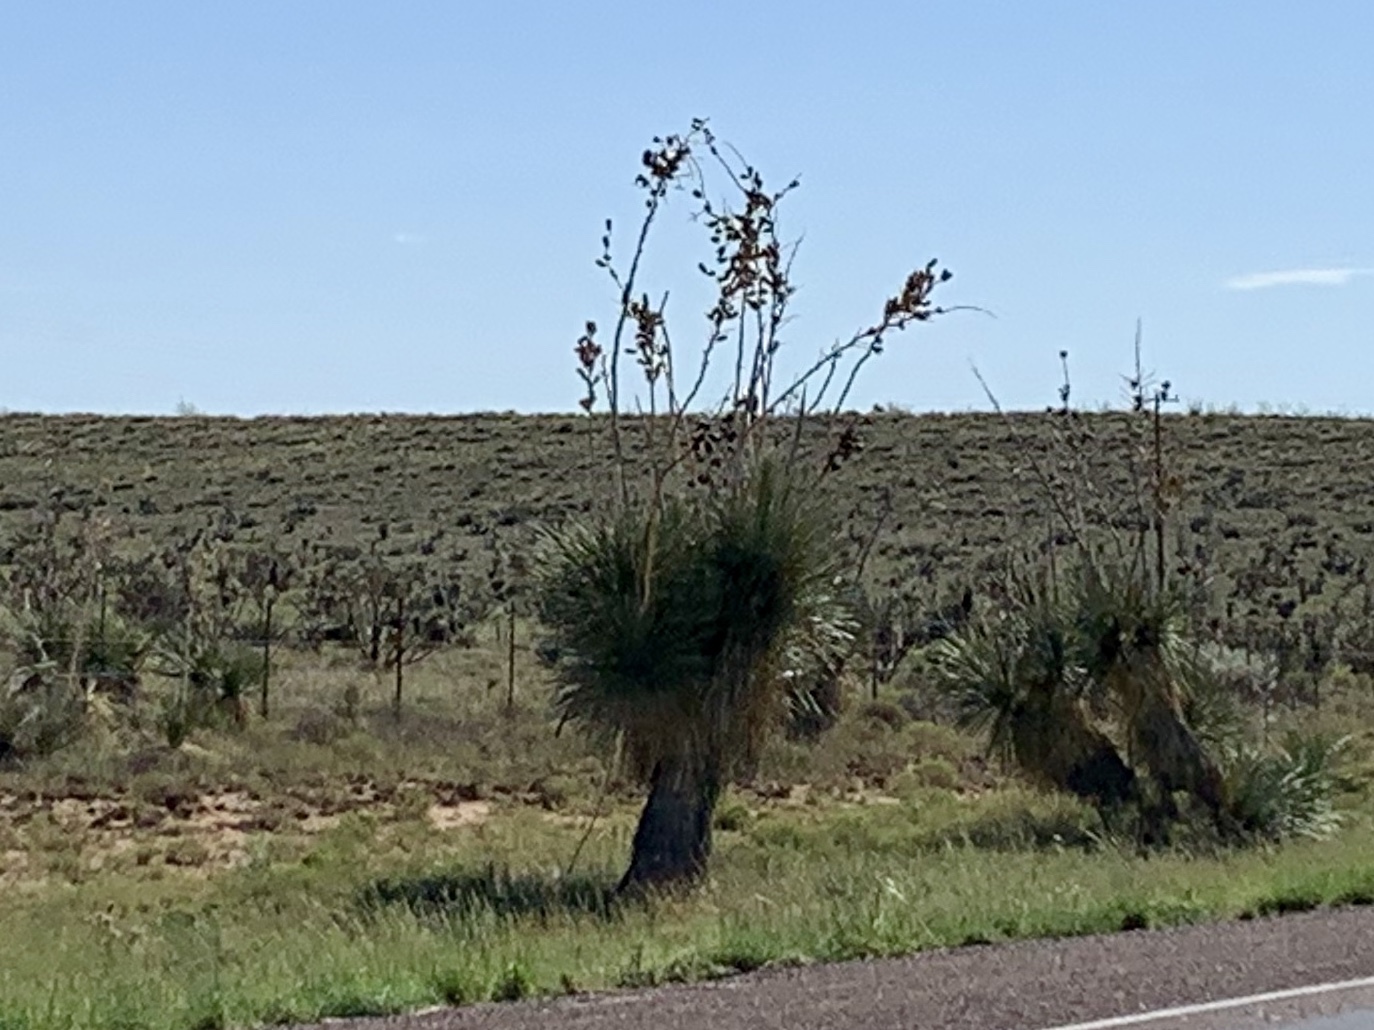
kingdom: Plantae
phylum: Tracheophyta
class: Liliopsida
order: Asparagales
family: Asparagaceae
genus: Yucca
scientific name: Yucca elata
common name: Palmella
